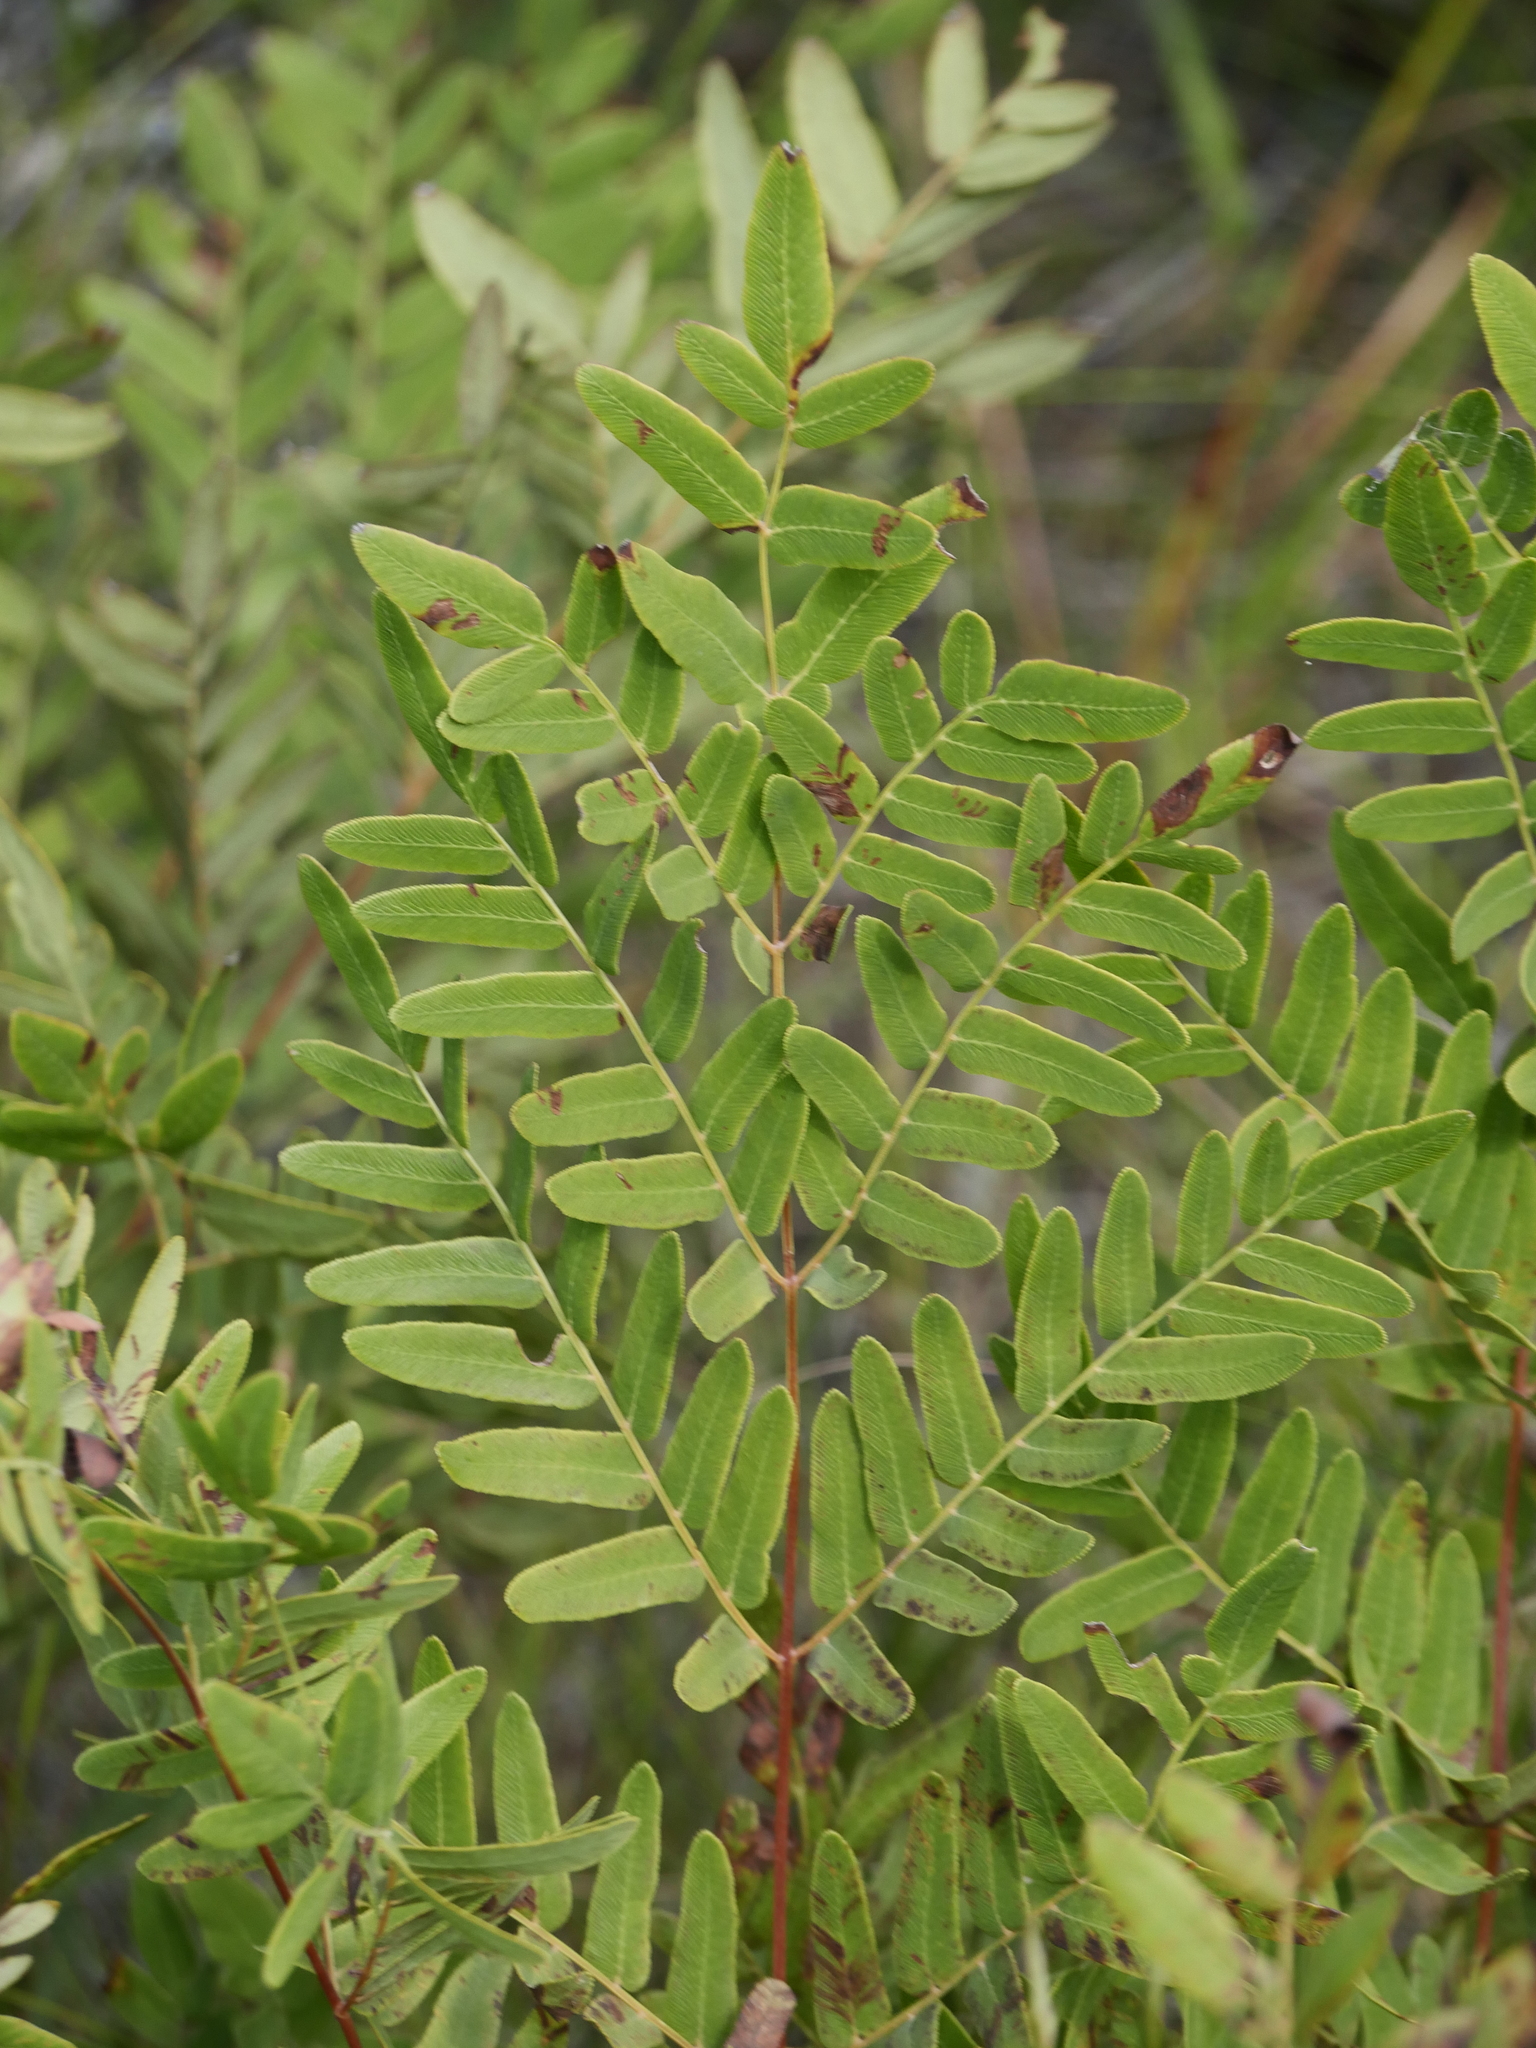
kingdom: Plantae
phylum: Tracheophyta
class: Polypodiopsida
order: Osmundales
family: Osmundaceae
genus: Osmunda
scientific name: Osmunda spectabilis
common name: American royal fern
